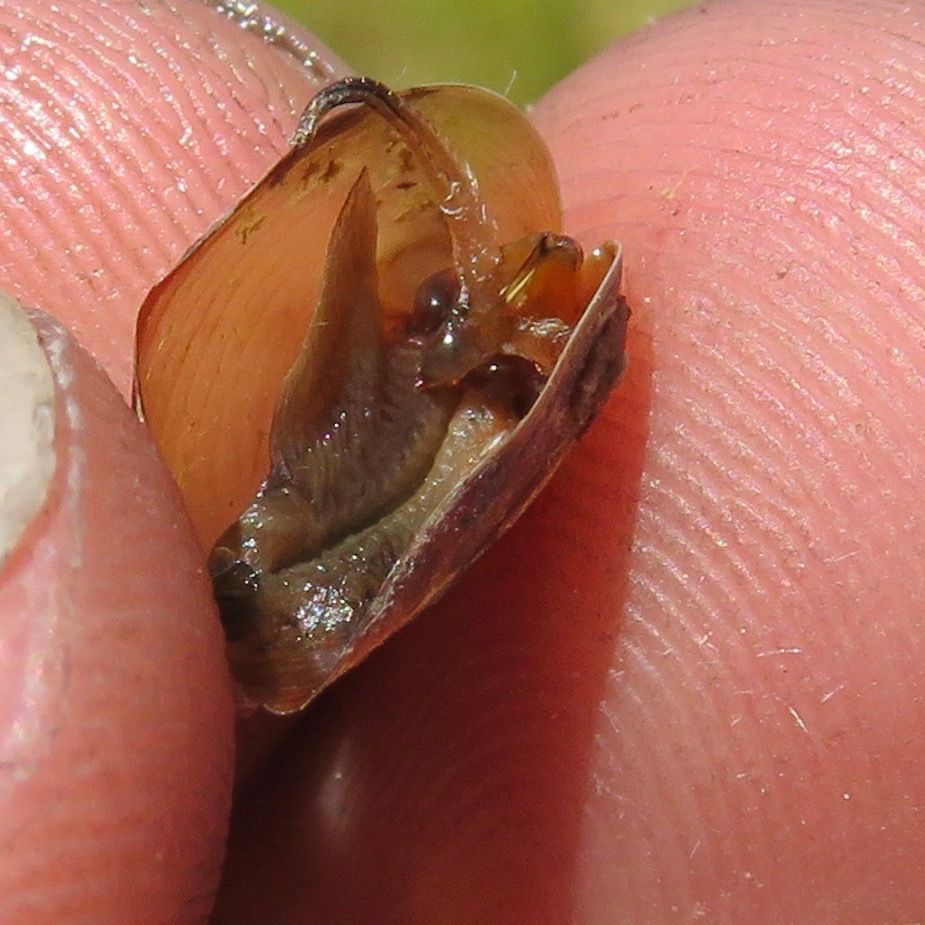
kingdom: Animalia
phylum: Arthropoda
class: Branchiopoda
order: Diplostraca
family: Cyzicidae
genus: Cyzicus
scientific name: Cyzicus californicus
